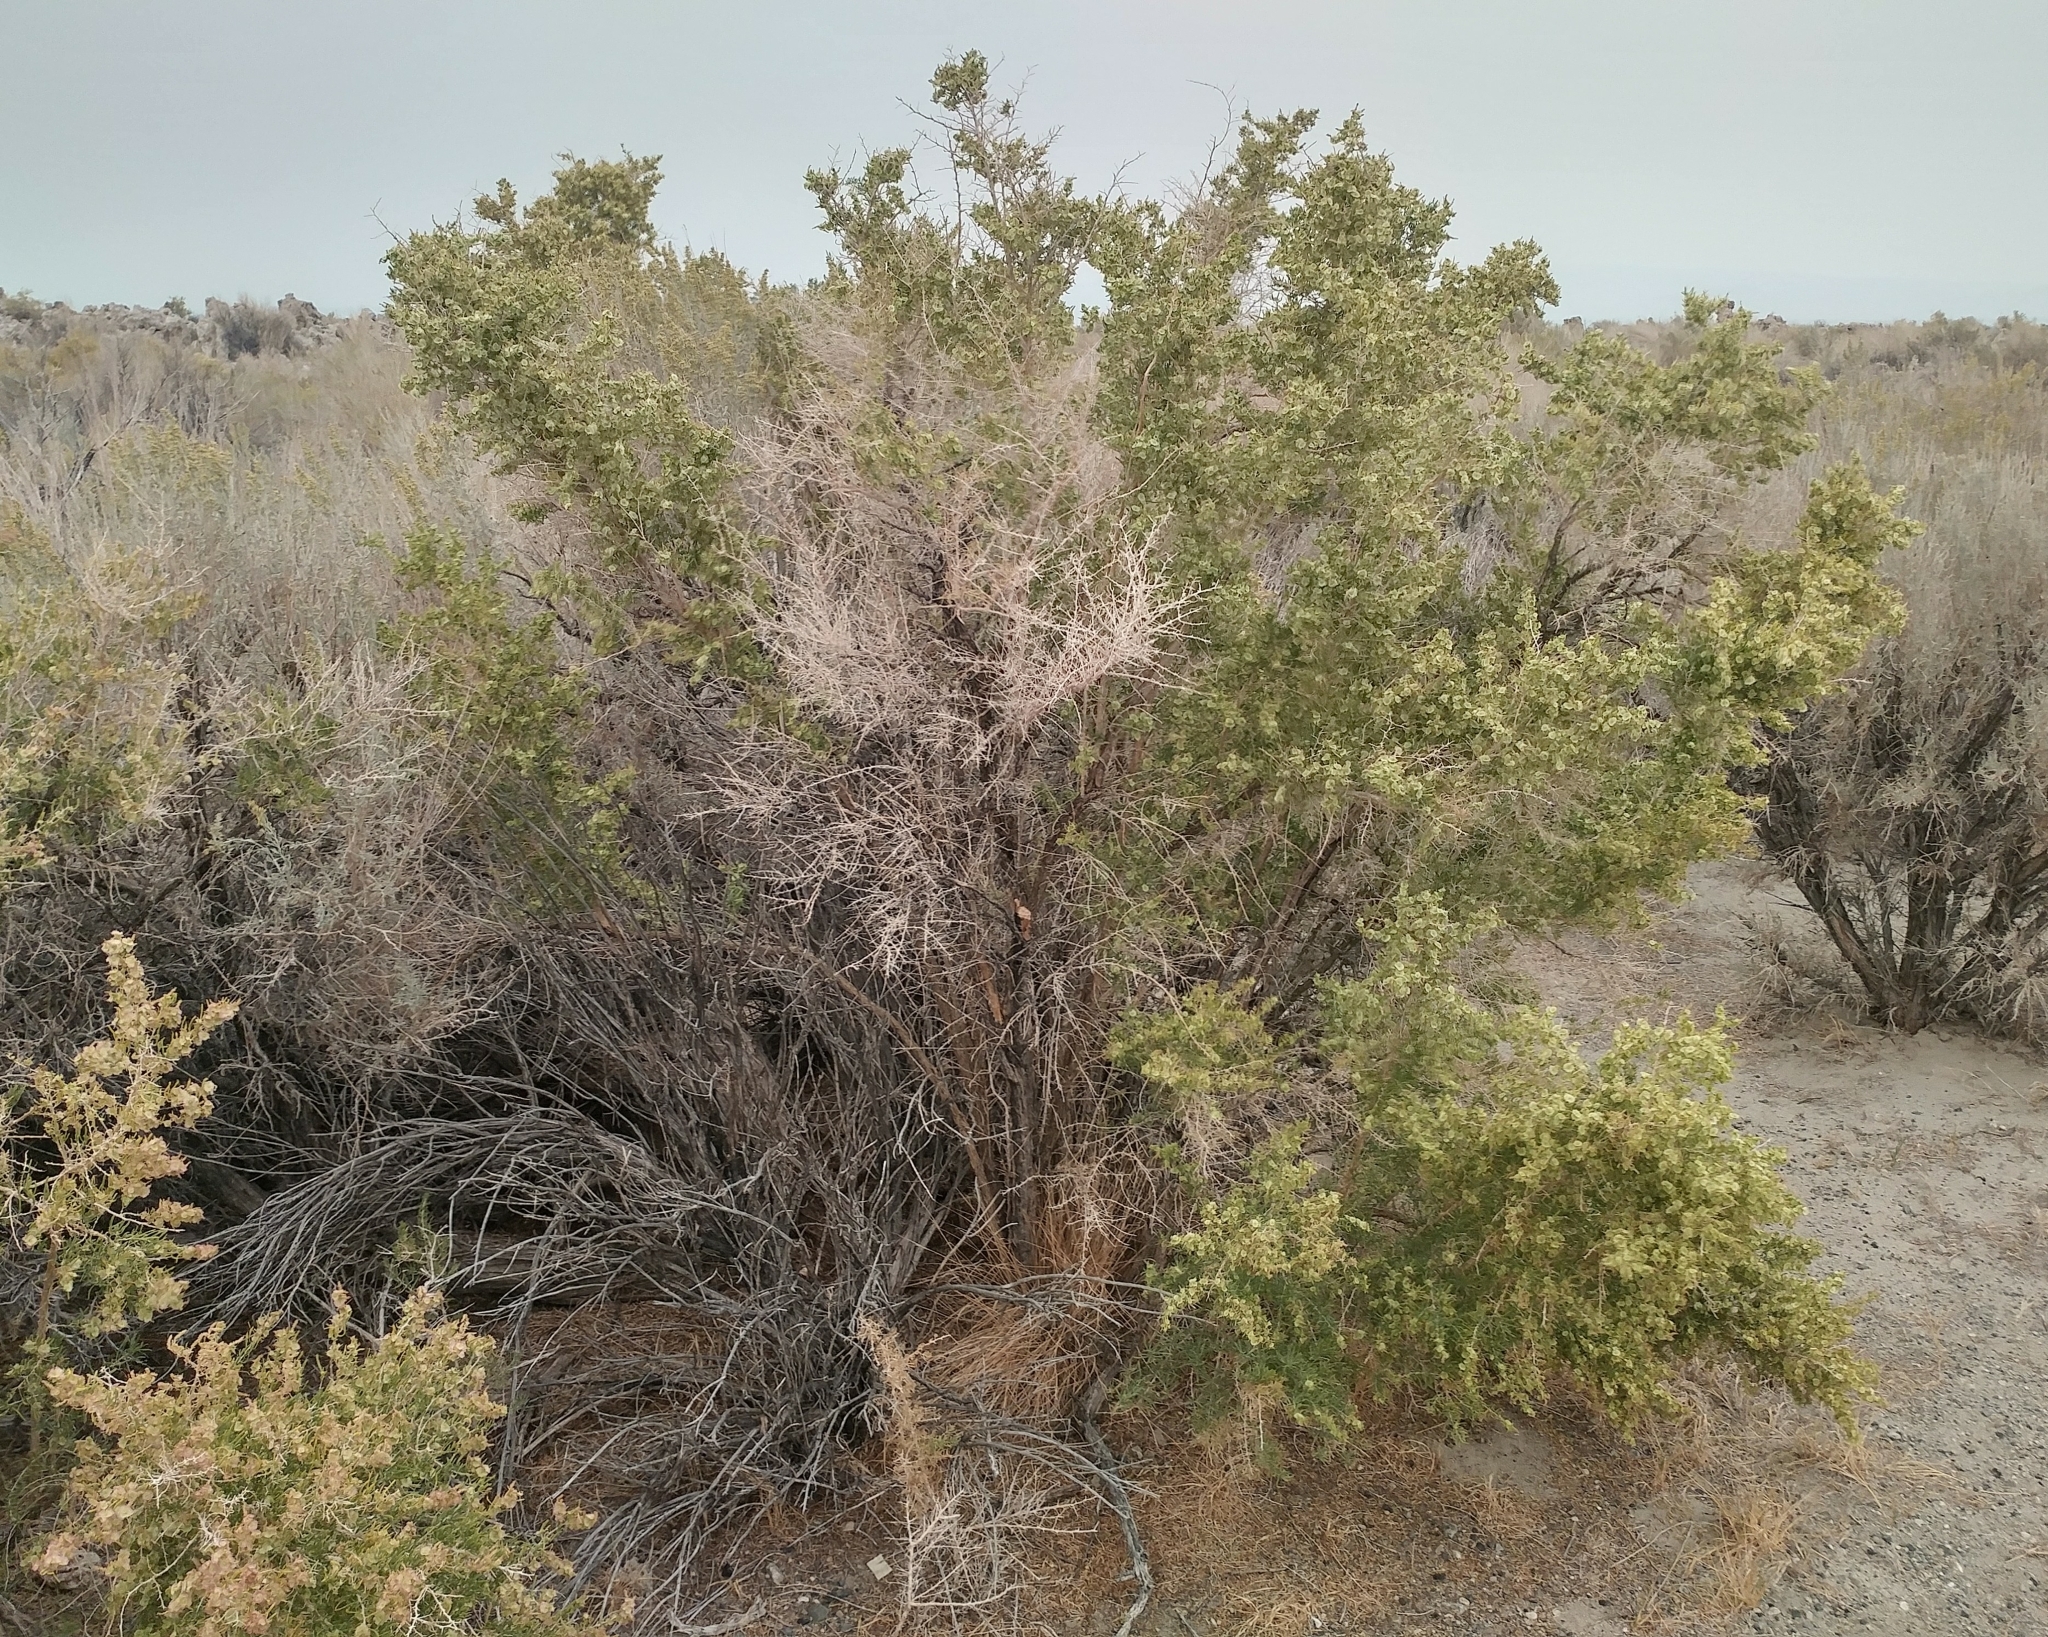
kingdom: Plantae
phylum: Tracheophyta
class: Magnoliopsida
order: Caryophyllales
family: Sarcobataceae
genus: Sarcobatus
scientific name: Sarcobatus vermiculatus
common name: Greasewood
